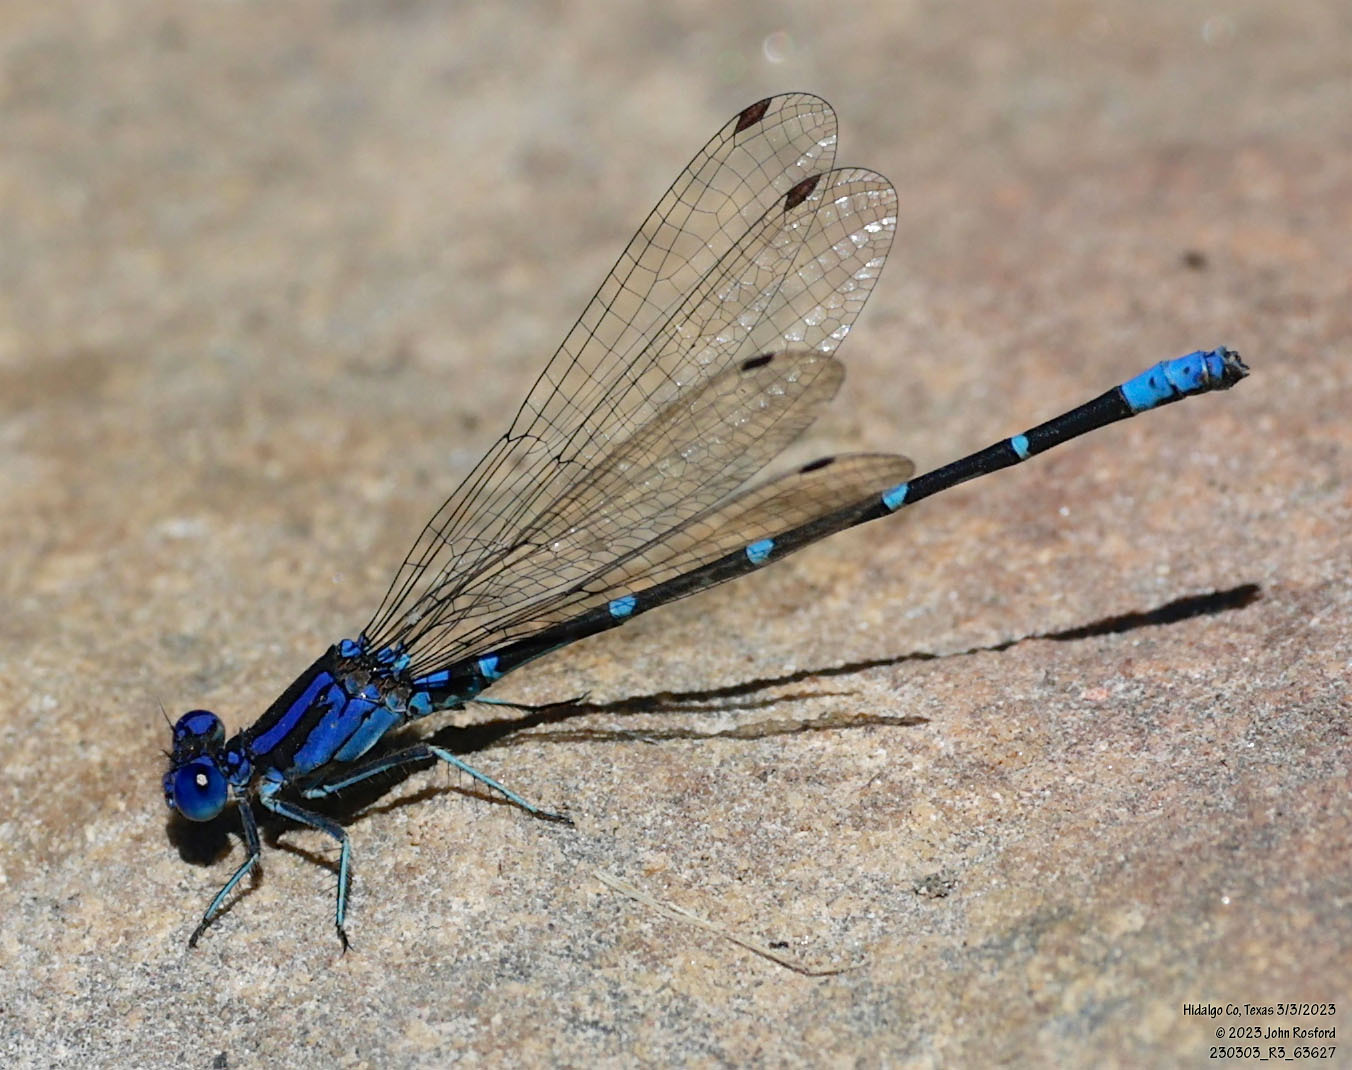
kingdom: Animalia
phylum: Arthropoda
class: Insecta
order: Odonata
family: Coenagrionidae
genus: Argia
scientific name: Argia sedula
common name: Blue-ringed dancer
